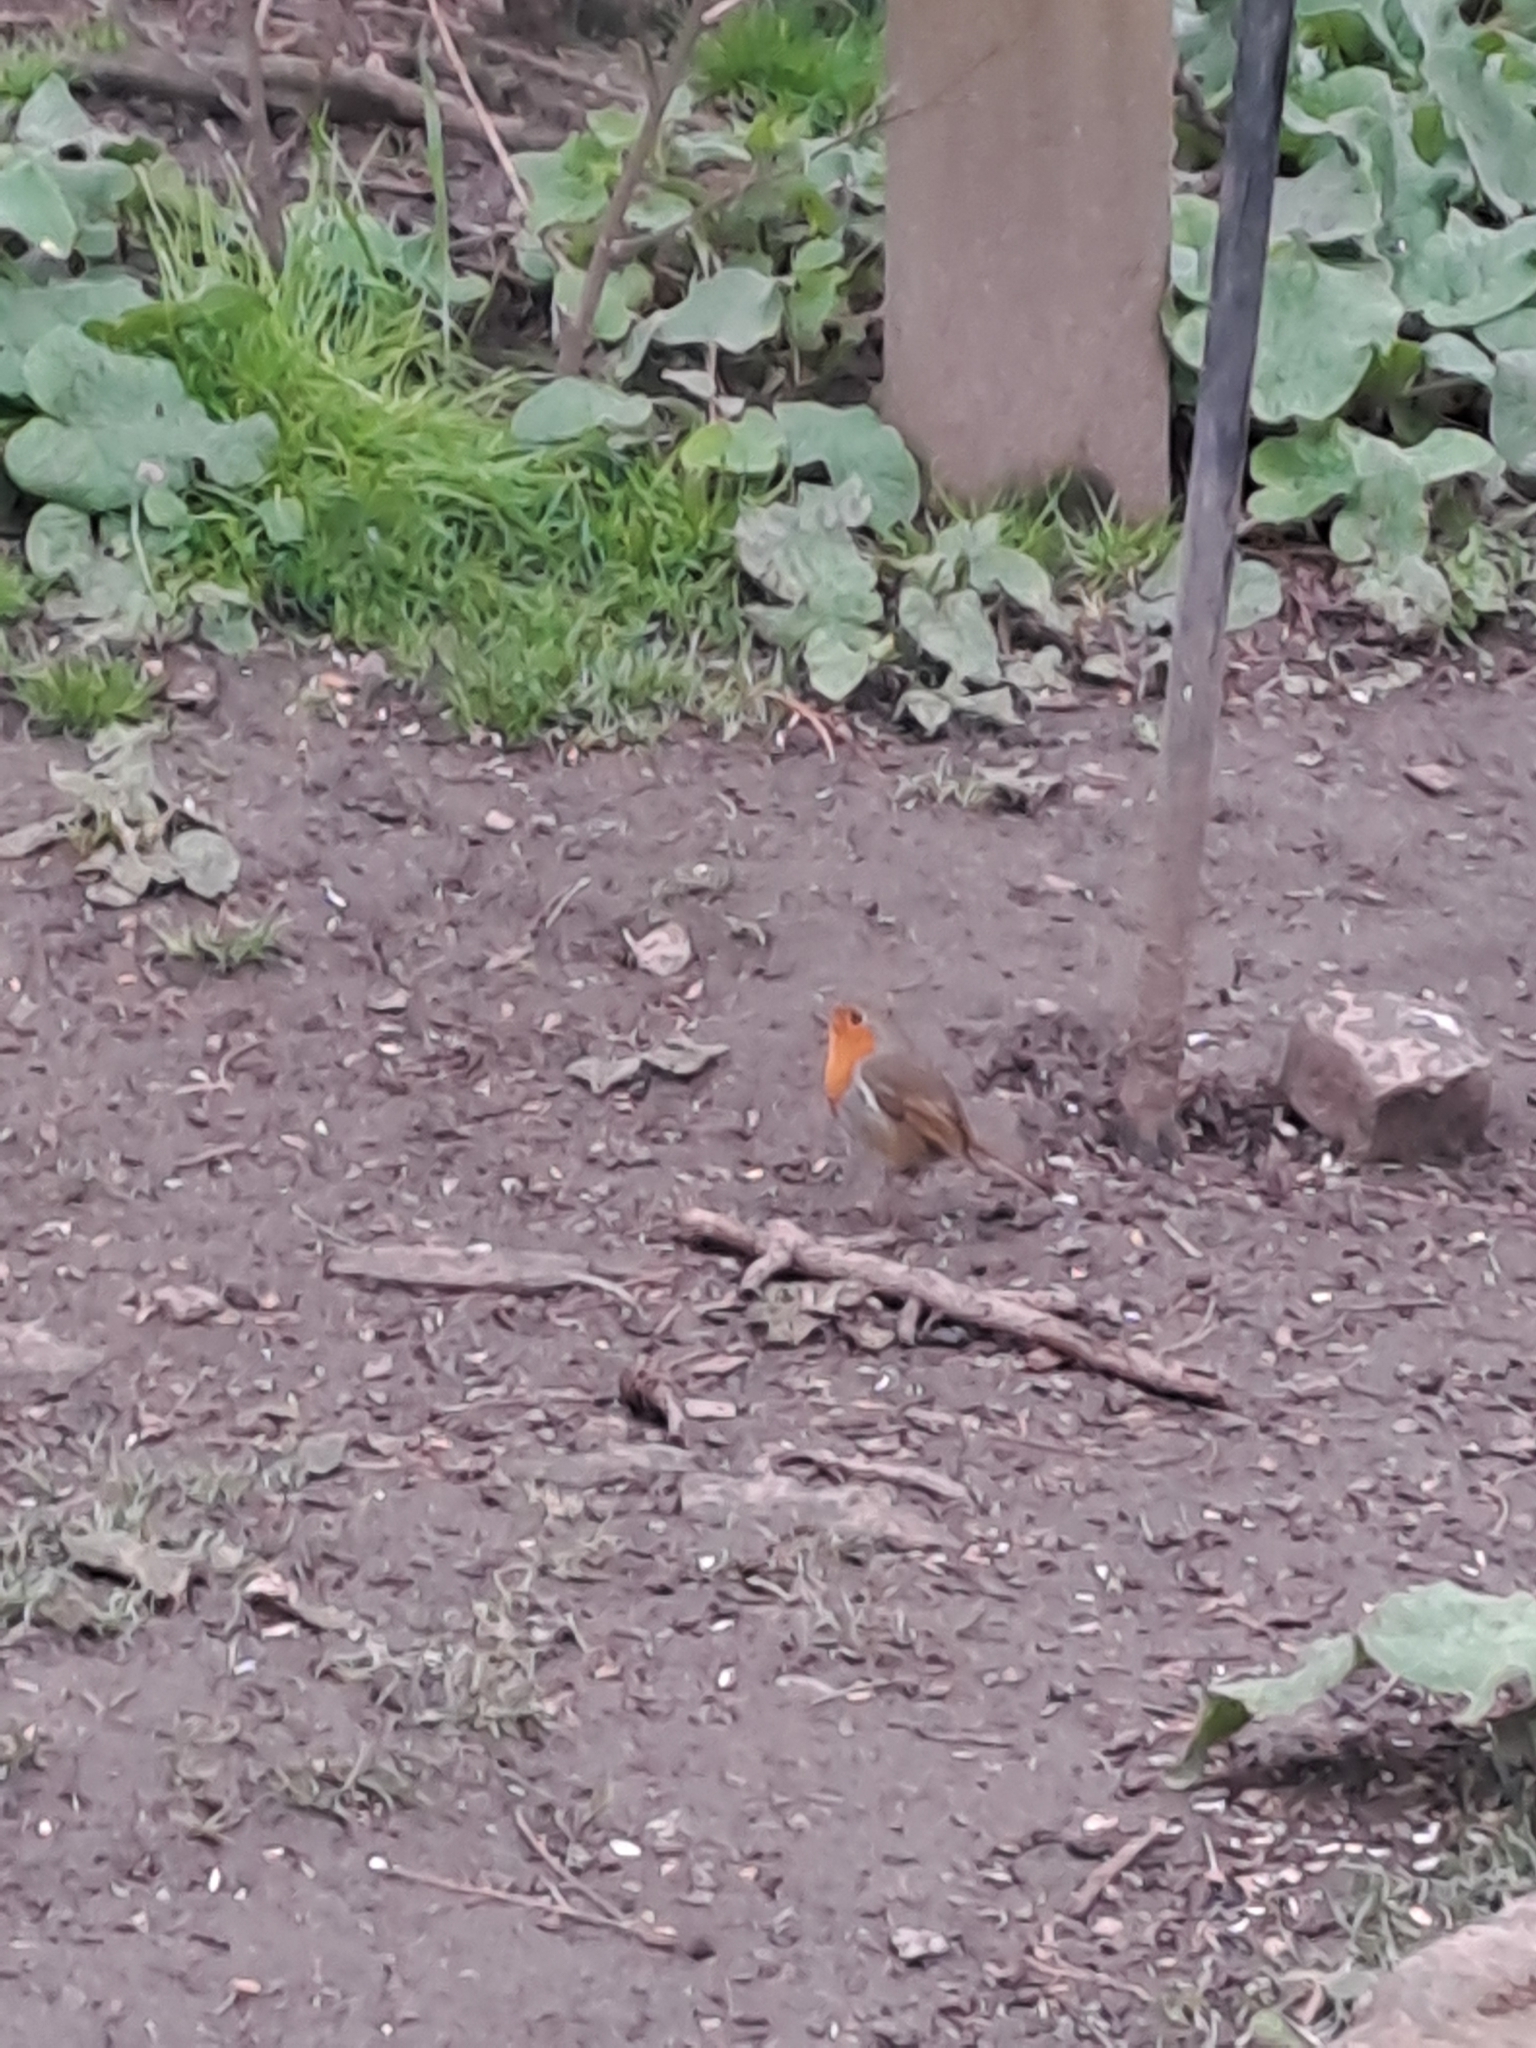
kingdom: Animalia
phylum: Chordata
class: Aves
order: Passeriformes
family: Muscicapidae
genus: Erithacus
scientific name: Erithacus rubecula
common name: European robin
